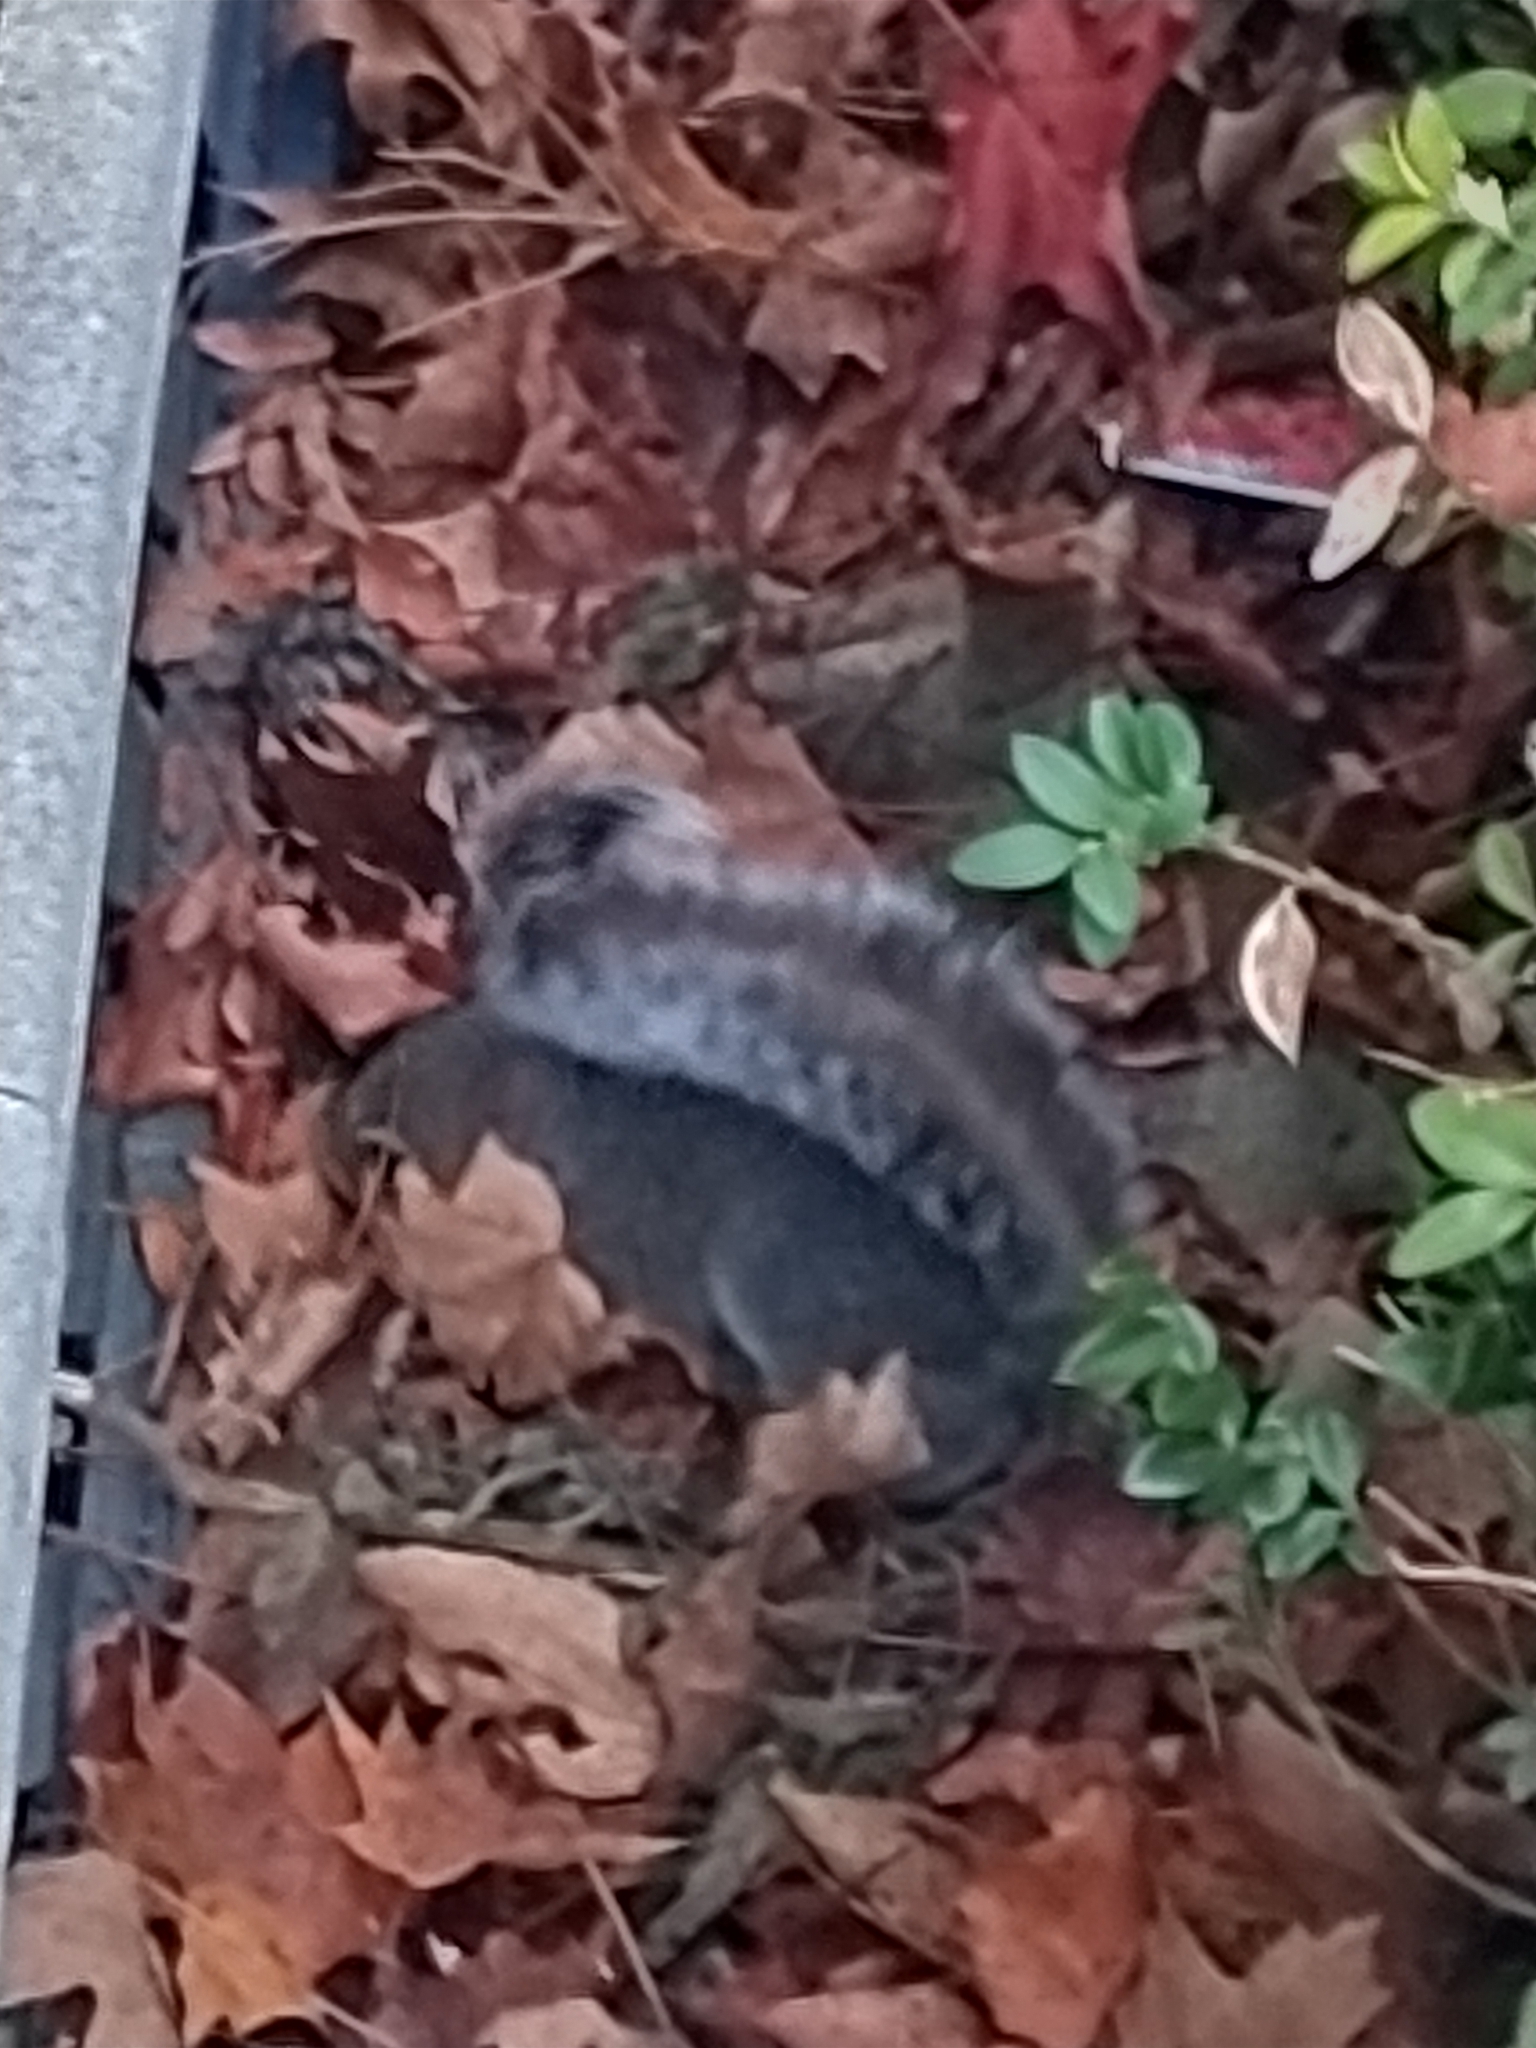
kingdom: Animalia
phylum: Chordata
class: Mammalia
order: Rodentia
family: Sciuridae
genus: Sciurus
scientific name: Sciurus carolinensis
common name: Eastern gray squirrel
